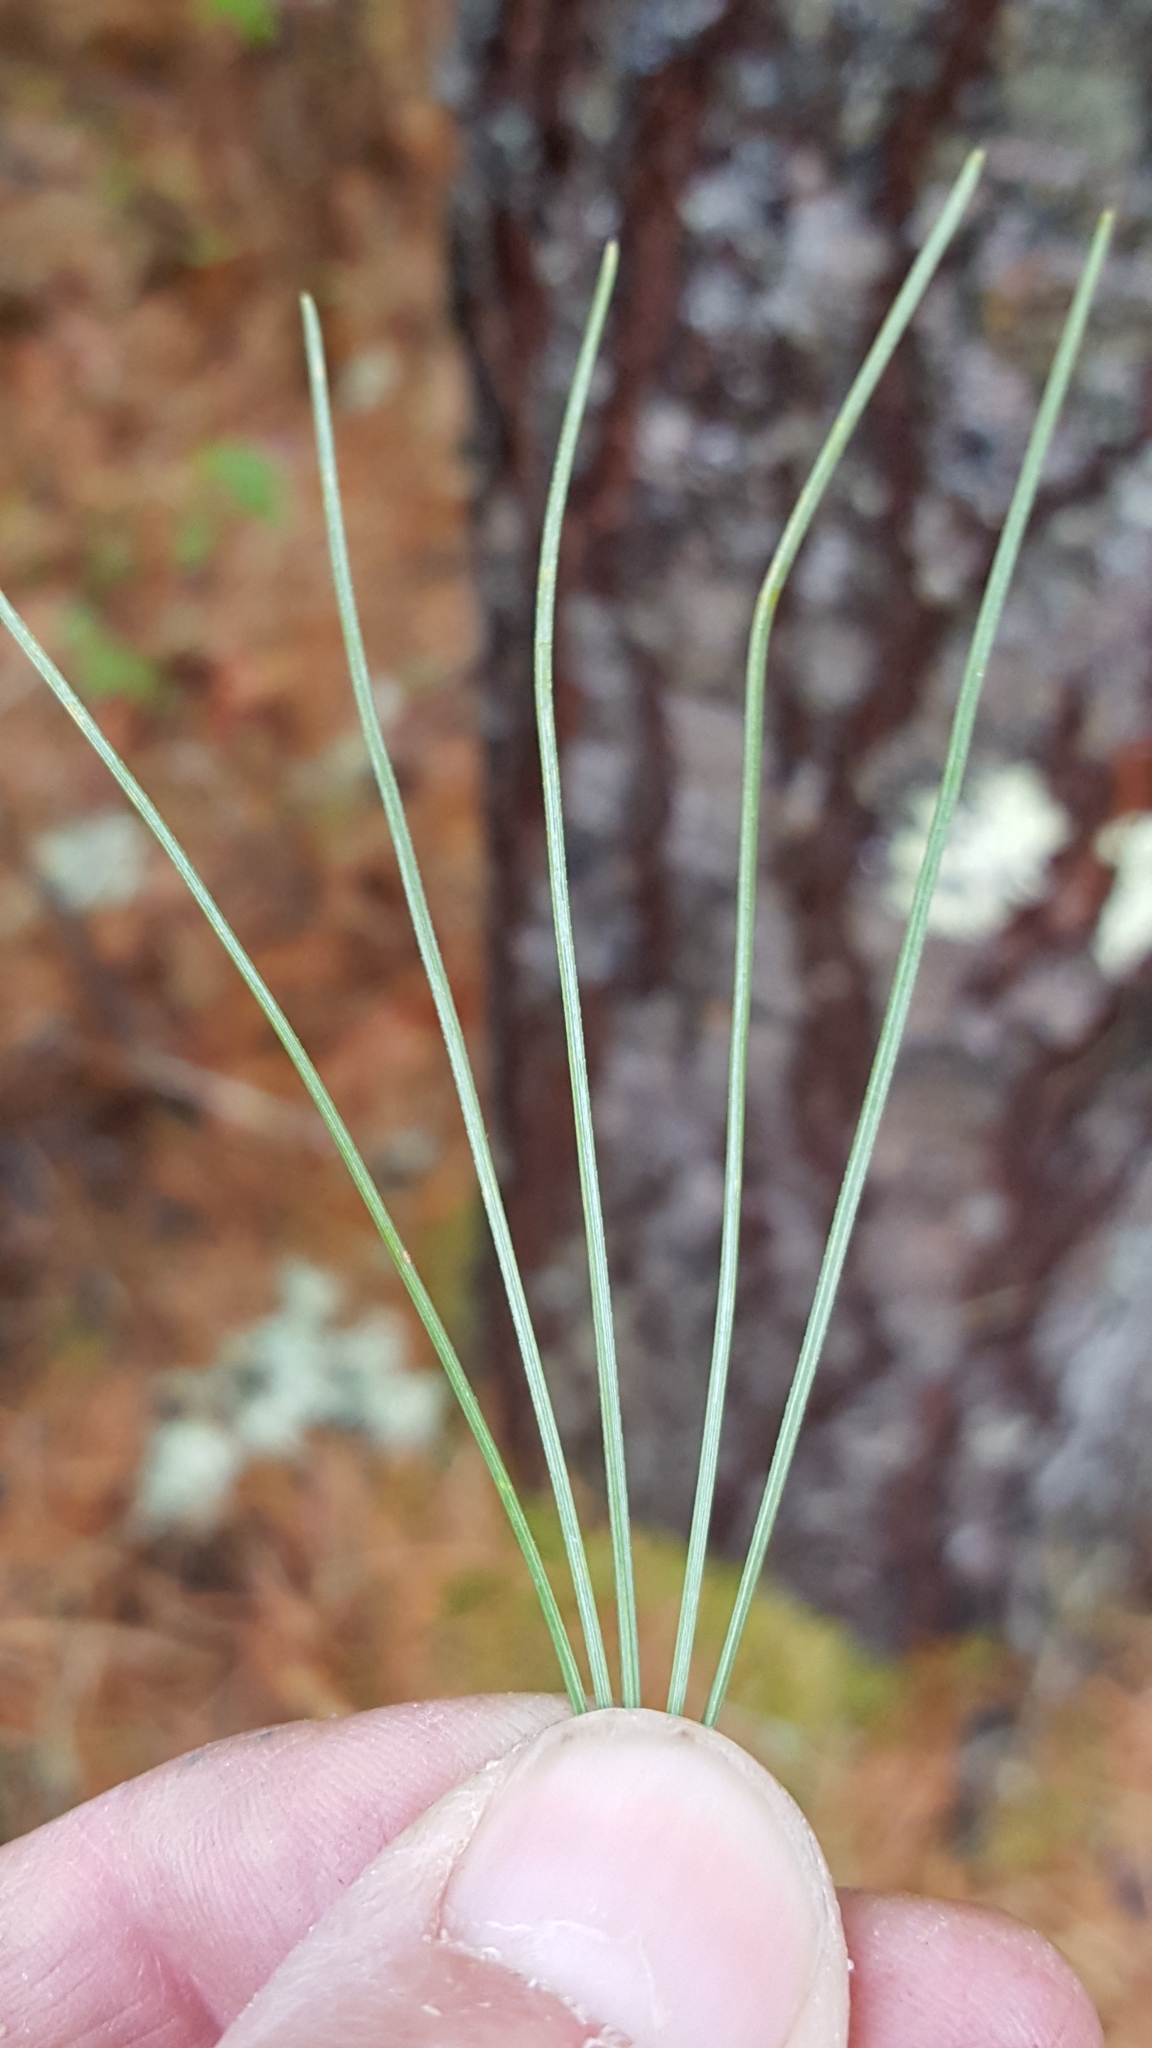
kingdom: Plantae
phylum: Tracheophyta
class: Pinopsida
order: Pinales
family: Pinaceae
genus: Pinus
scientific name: Pinus strobus
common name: Weymouth pine
